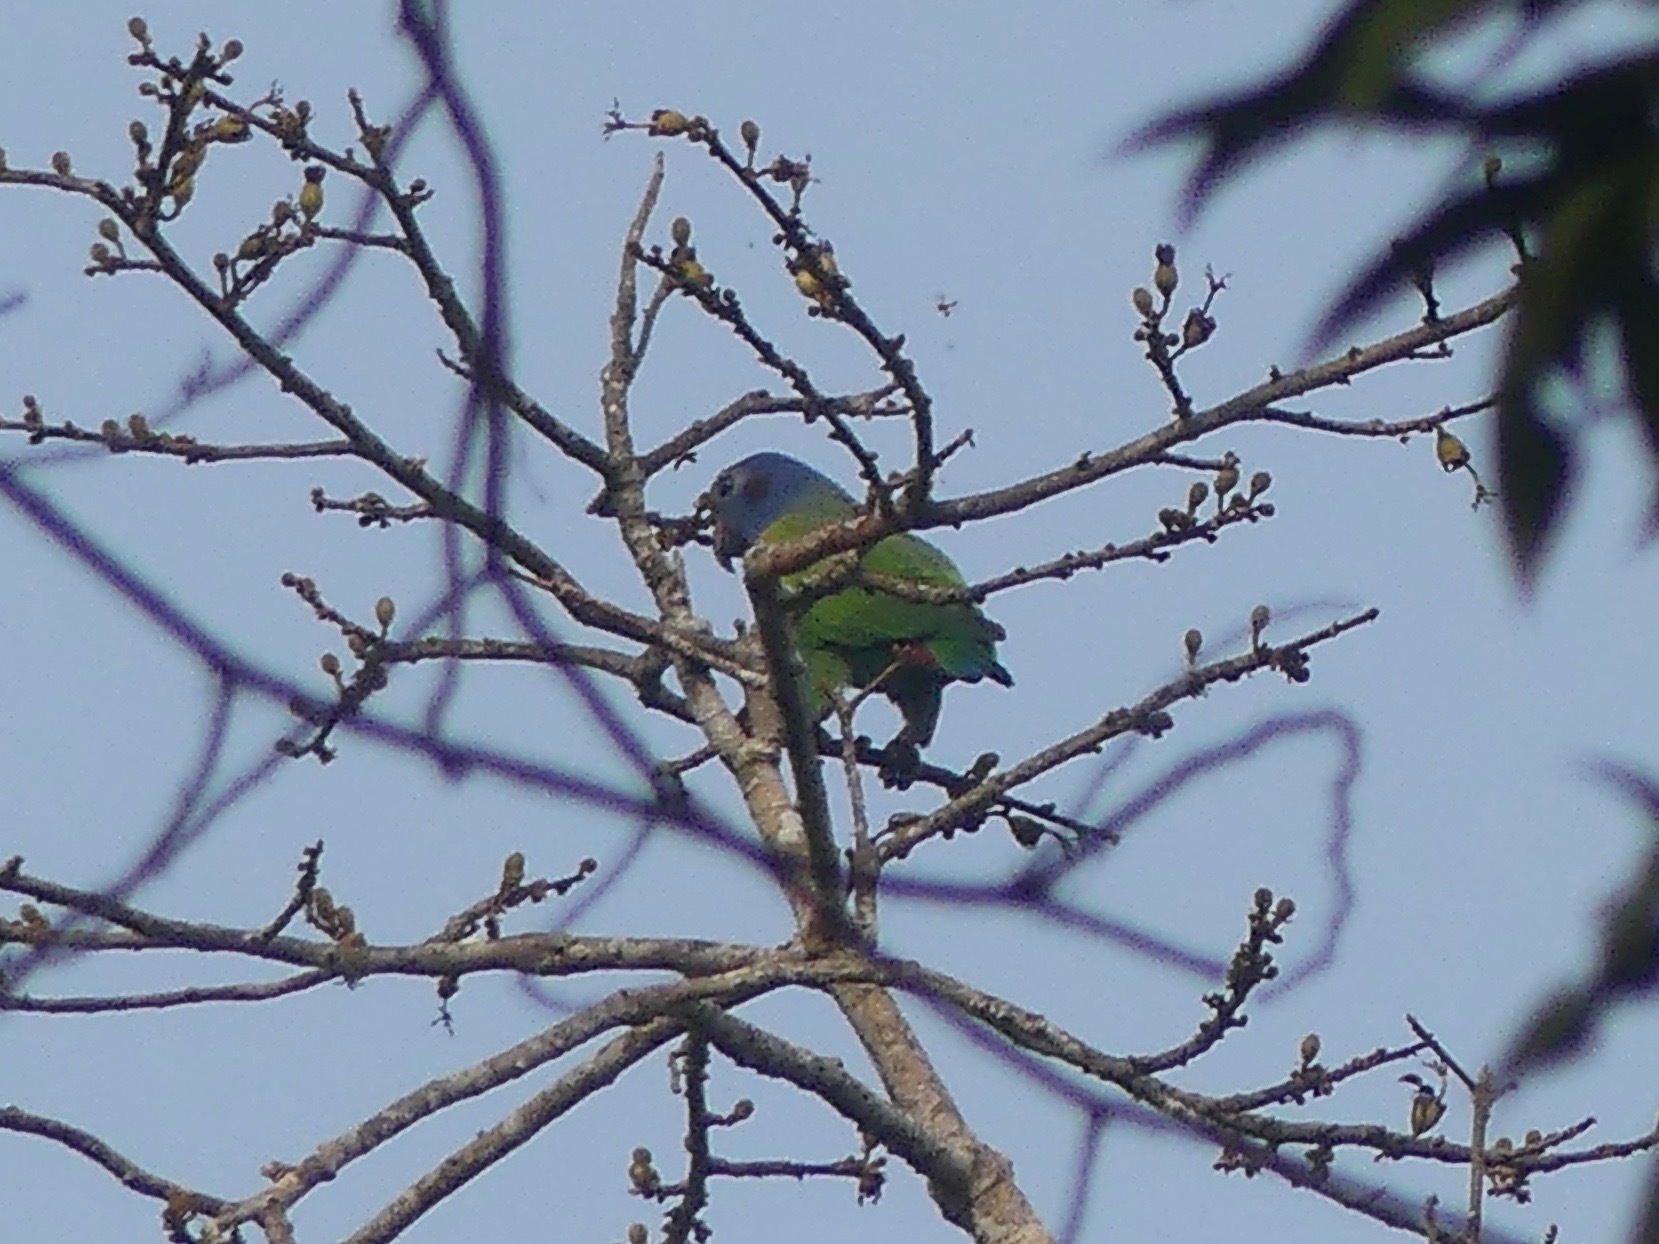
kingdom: Animalia
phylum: Chordata
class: Aves
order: Psittaciformes
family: Psittacidae
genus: Pionus
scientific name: Pionus menstruus
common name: Blue-headed parrot
